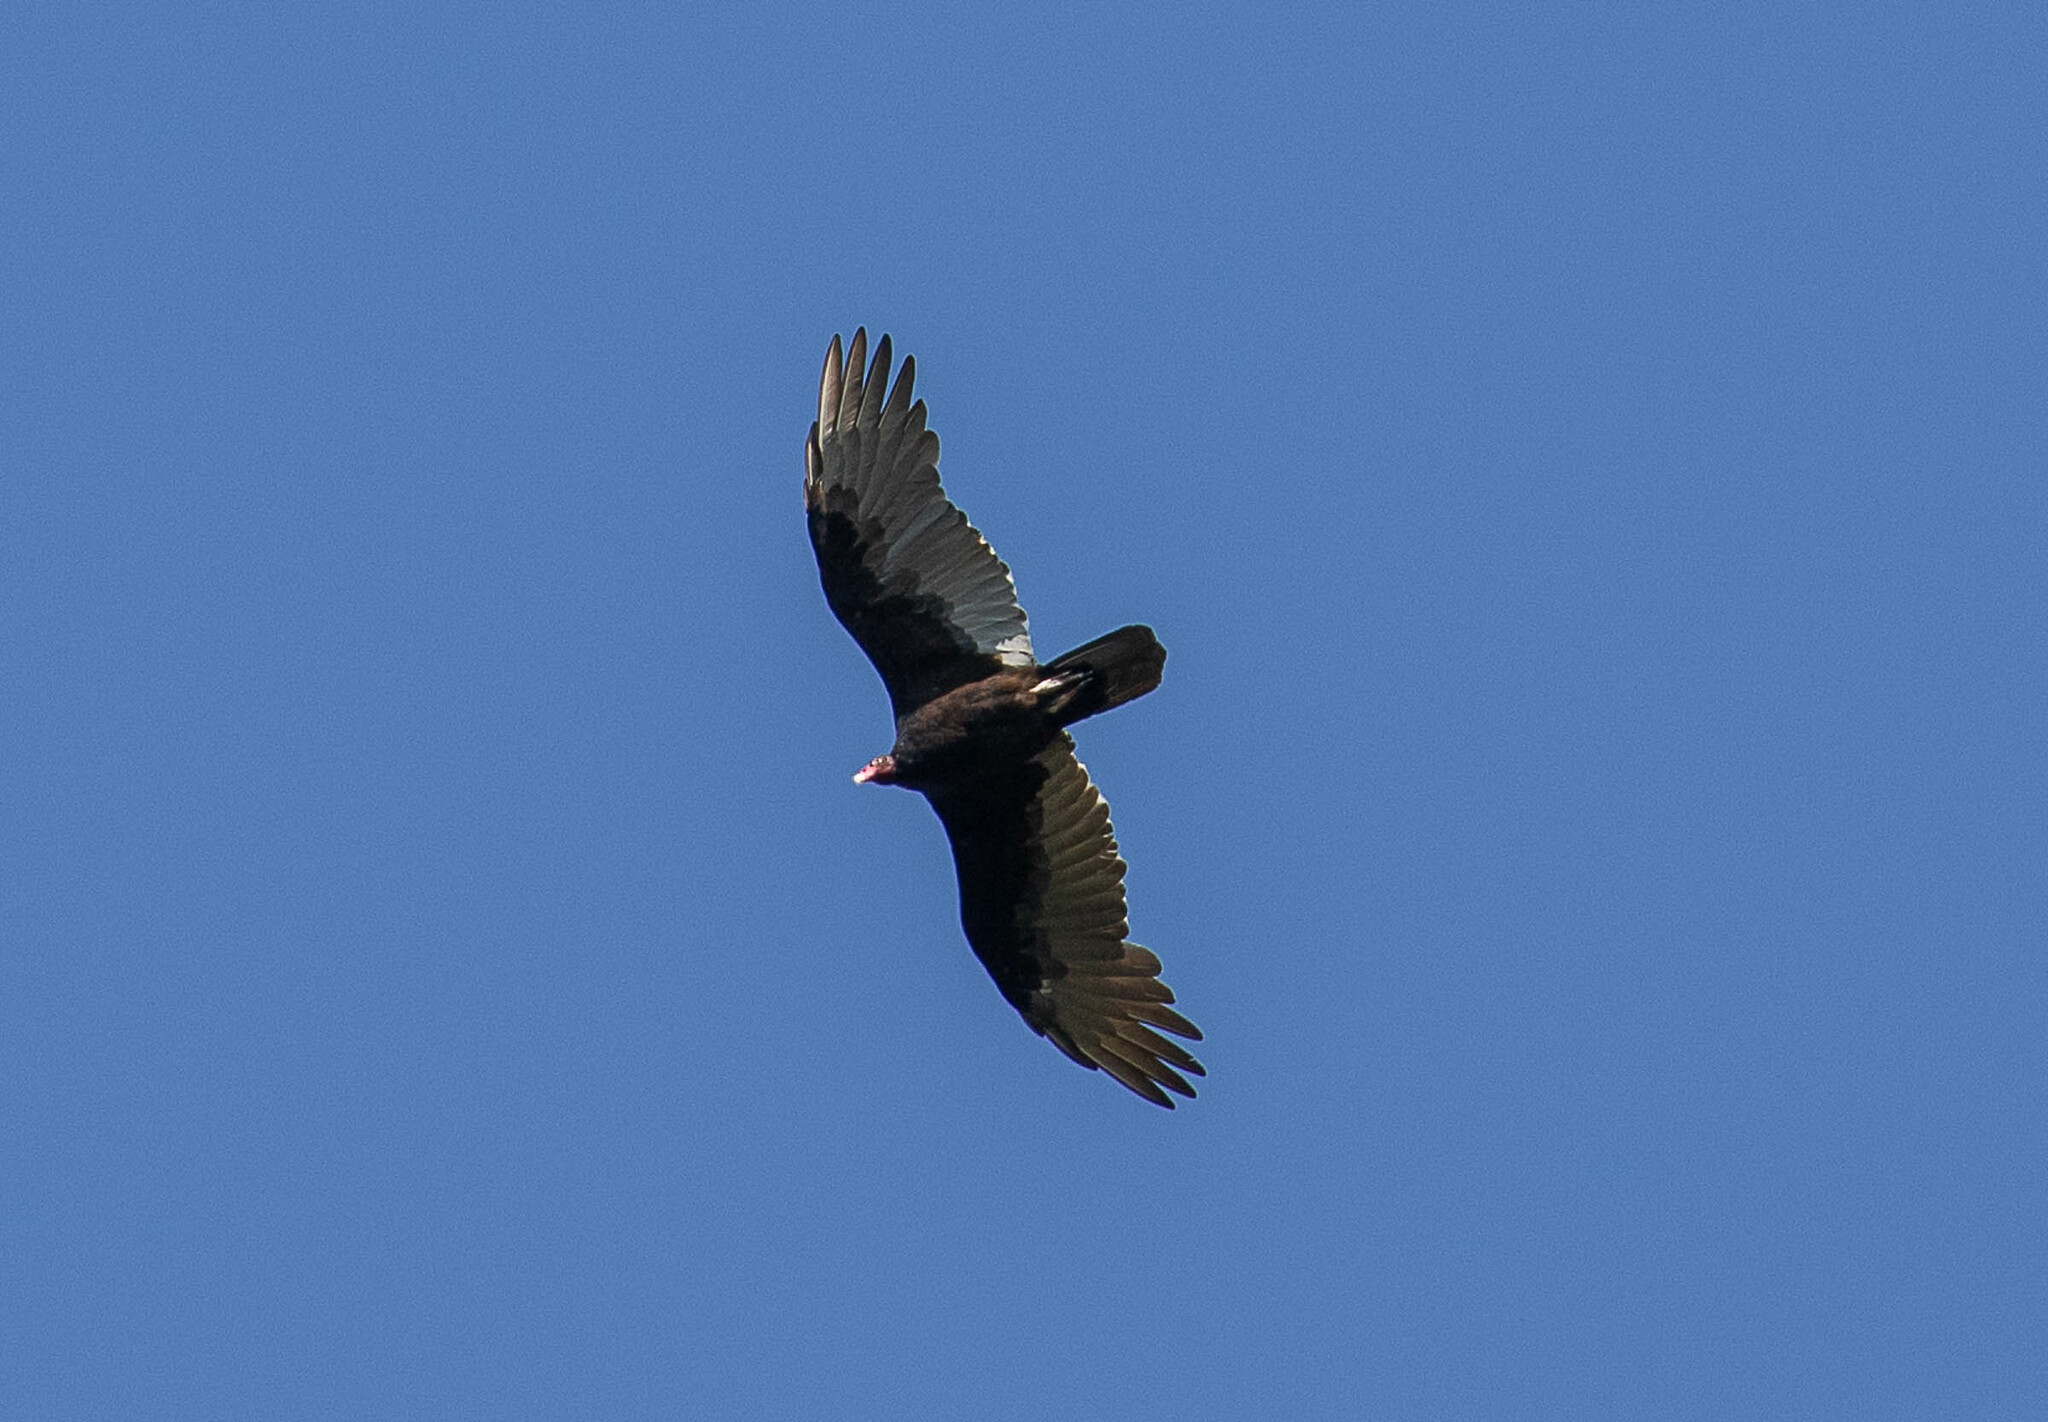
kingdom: Animalia
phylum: Chordata
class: Aves
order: Accipitriformes
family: Cathartidae
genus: Cathartes
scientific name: Cathartes aura
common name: Turkey vulture
